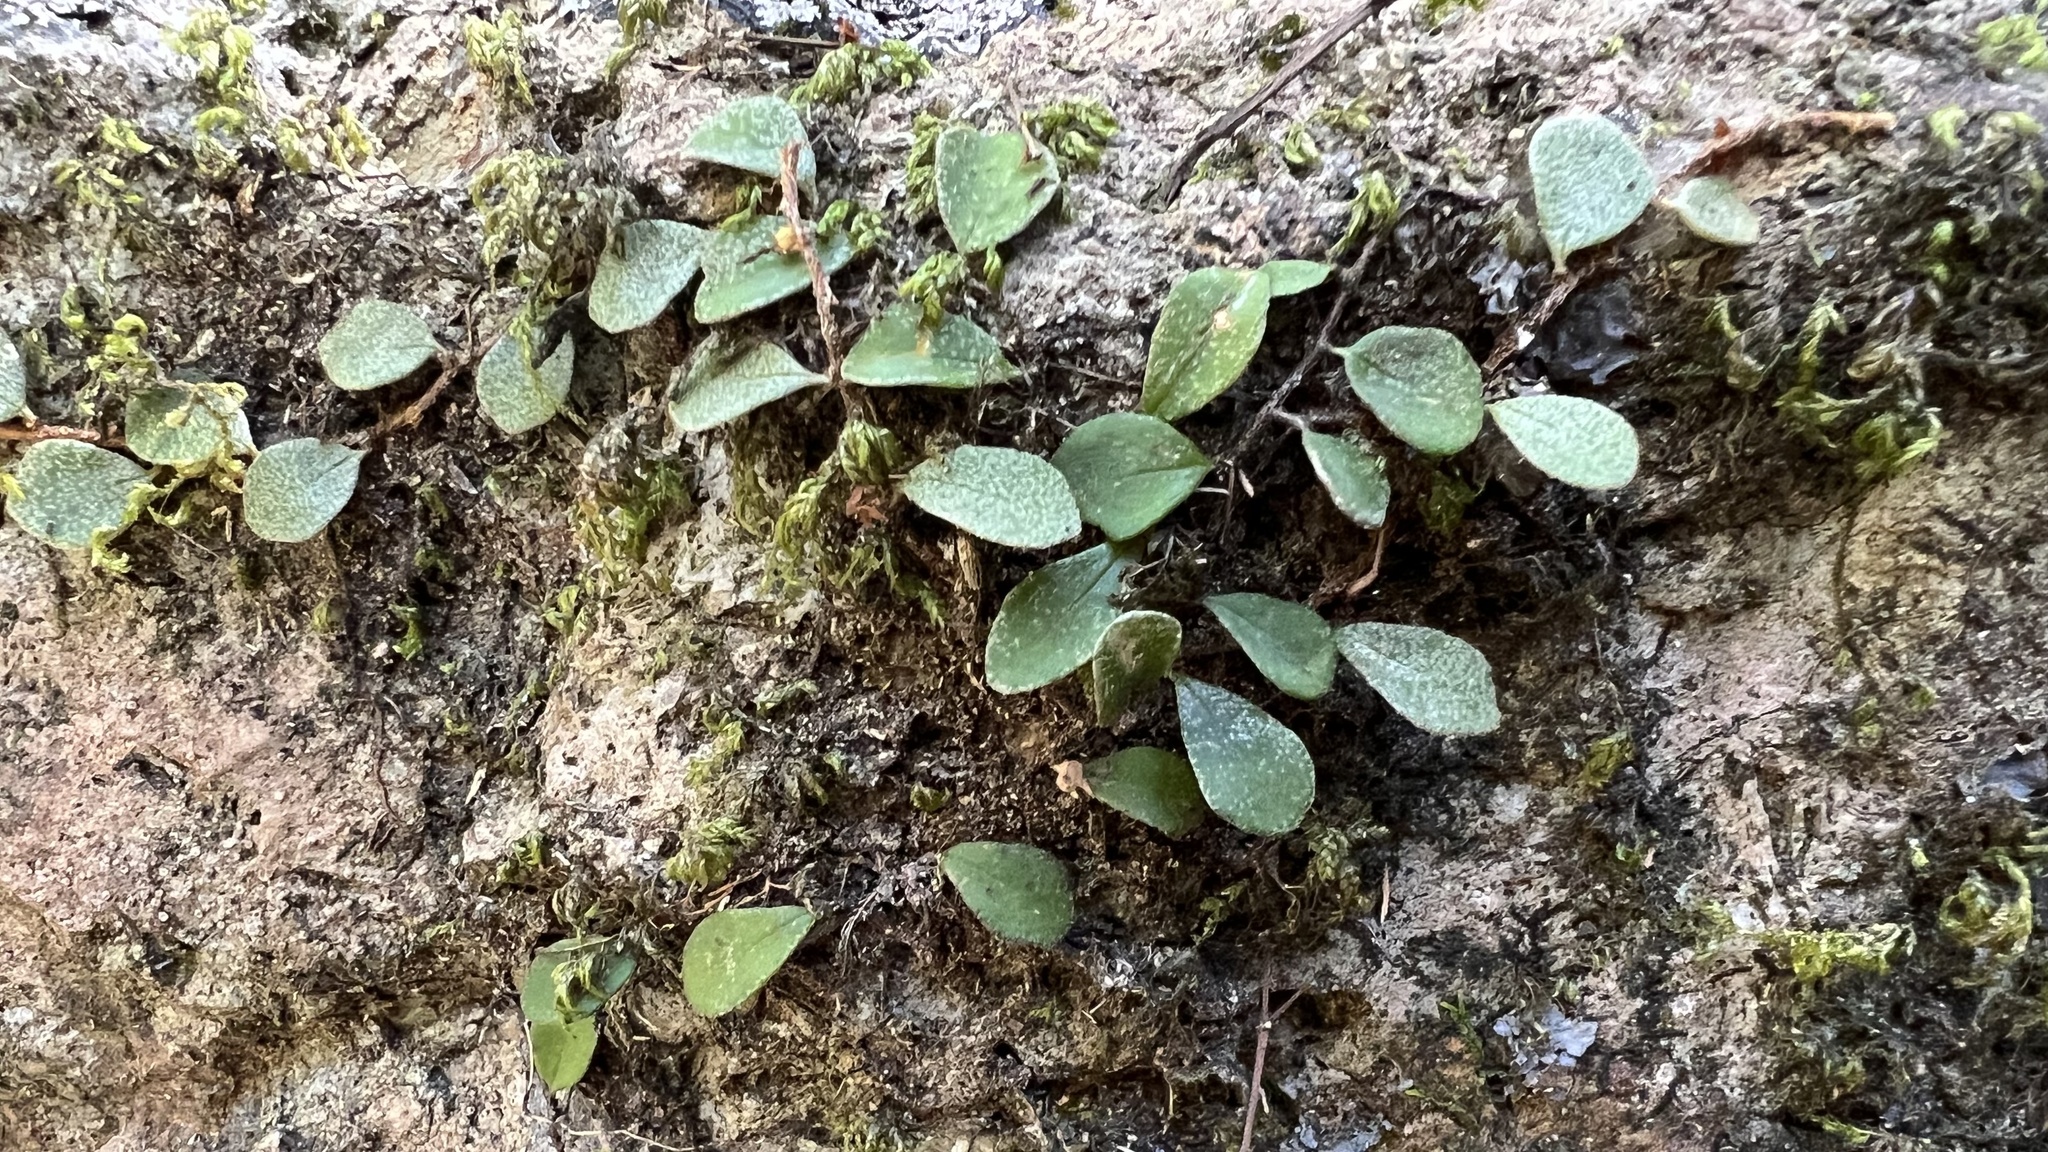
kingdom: Plantae
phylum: Tracheophyta
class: Polypodiopsida
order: Polypodiales
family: Polypodiaceae
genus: Pyrrosia
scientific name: Pyrrosia rupestris
